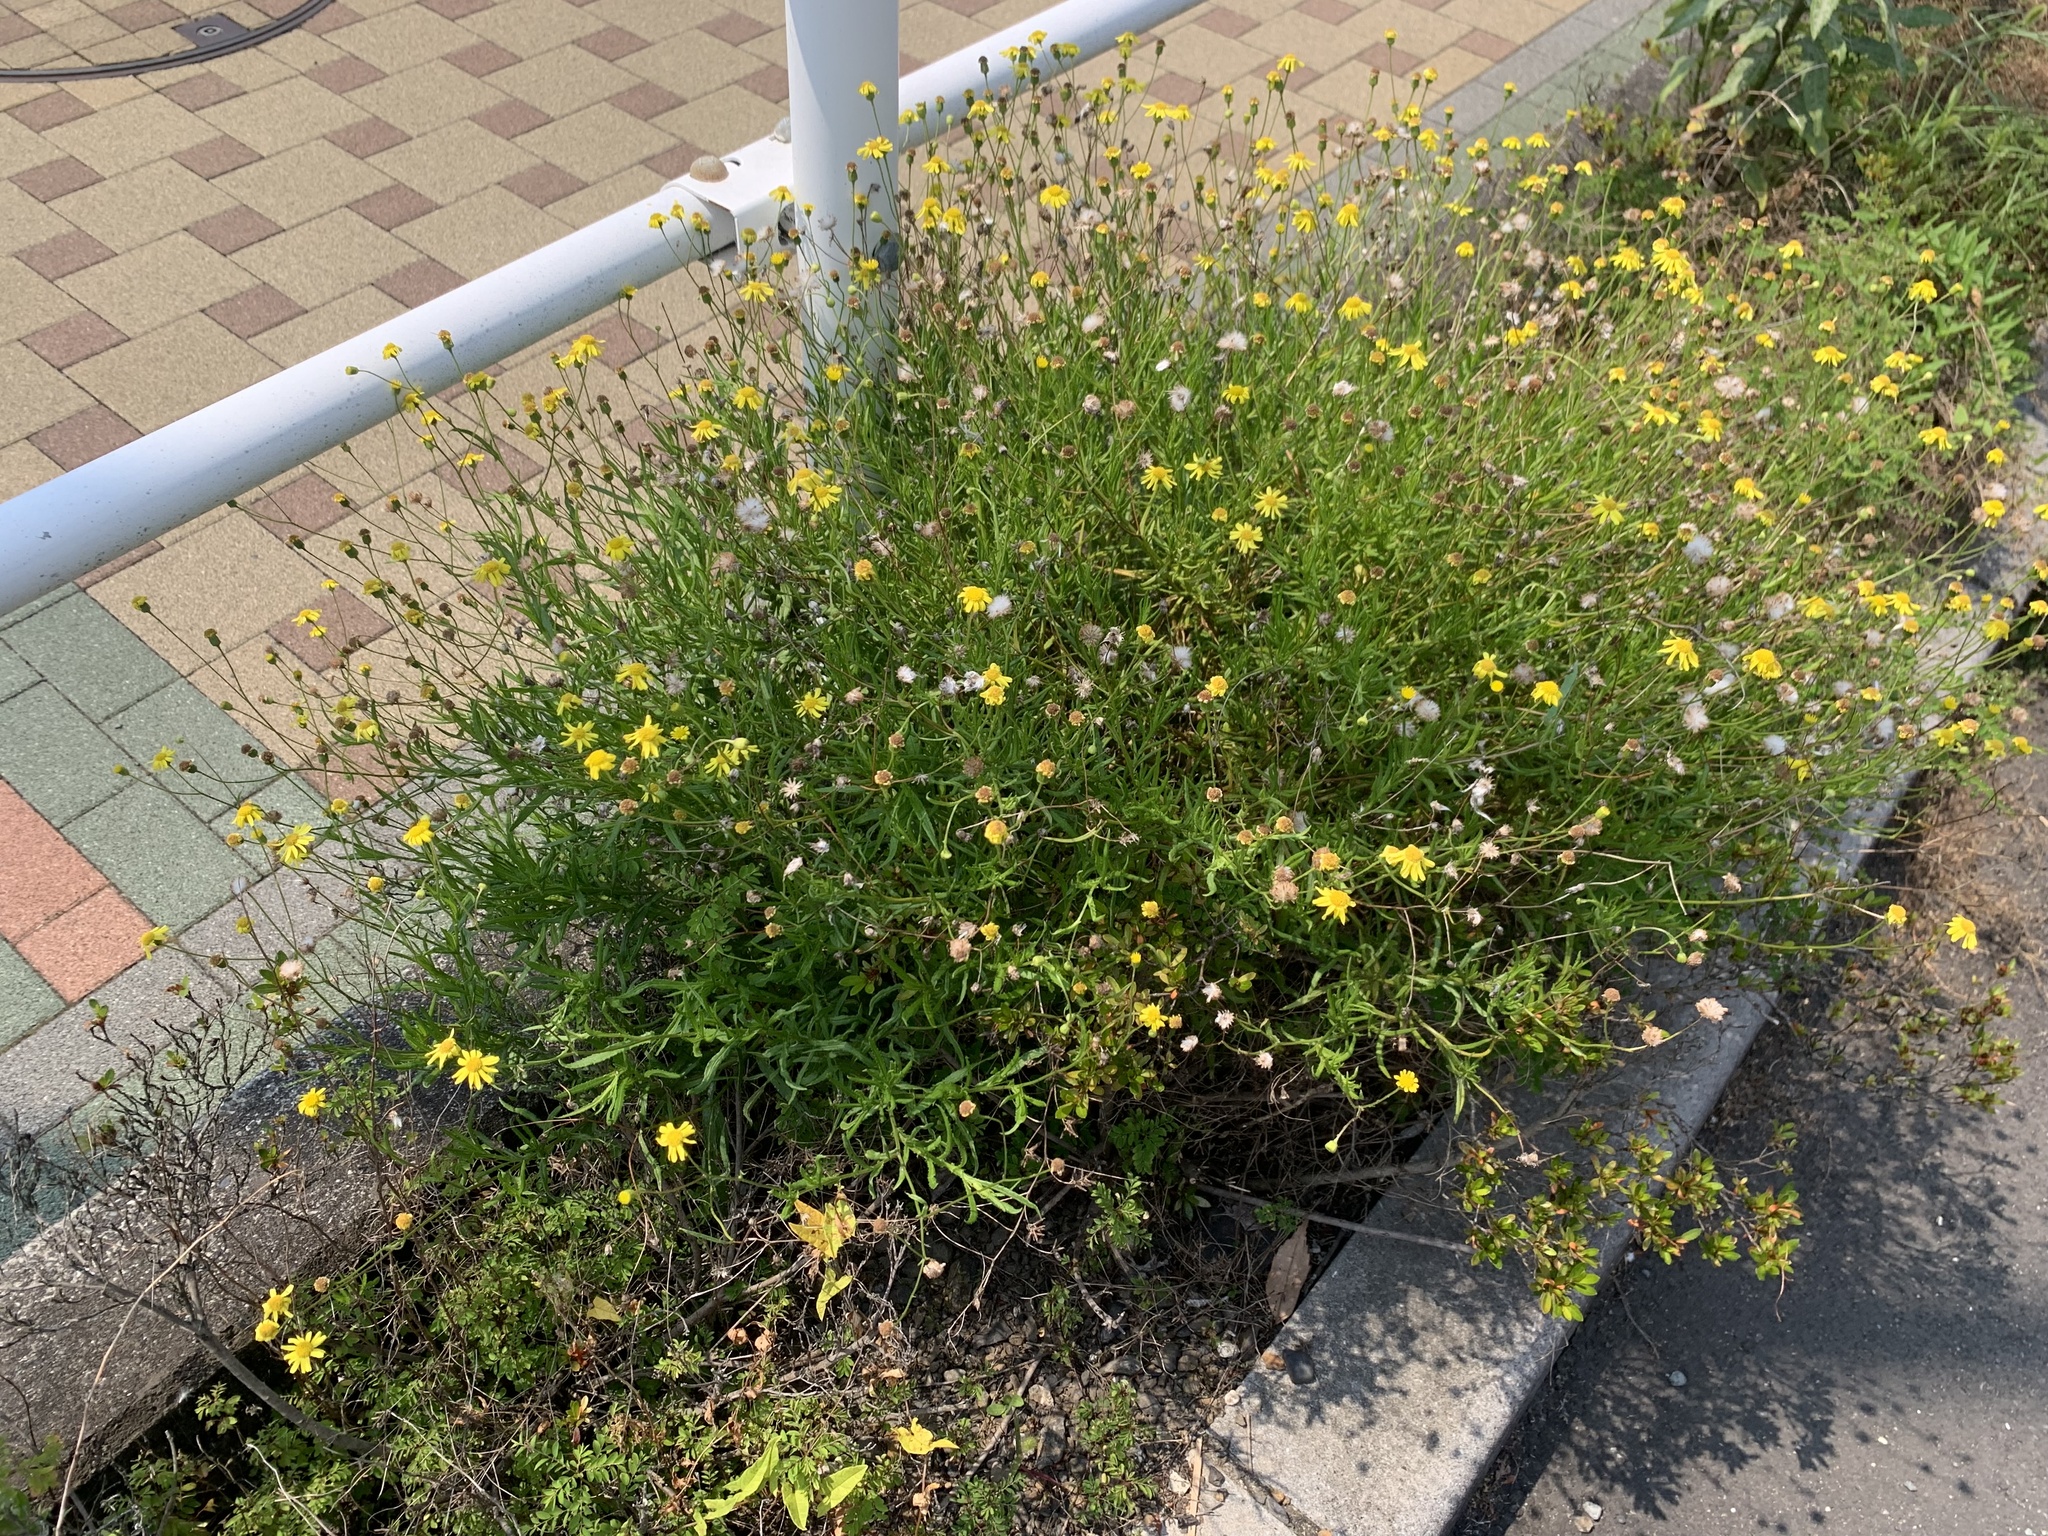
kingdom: Plantae
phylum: Tracheophyta
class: Magnoliopsida
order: Asterales
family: Asteraceae
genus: Senecio
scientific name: Senecio madagascariensis
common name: Madagascar ragwort
